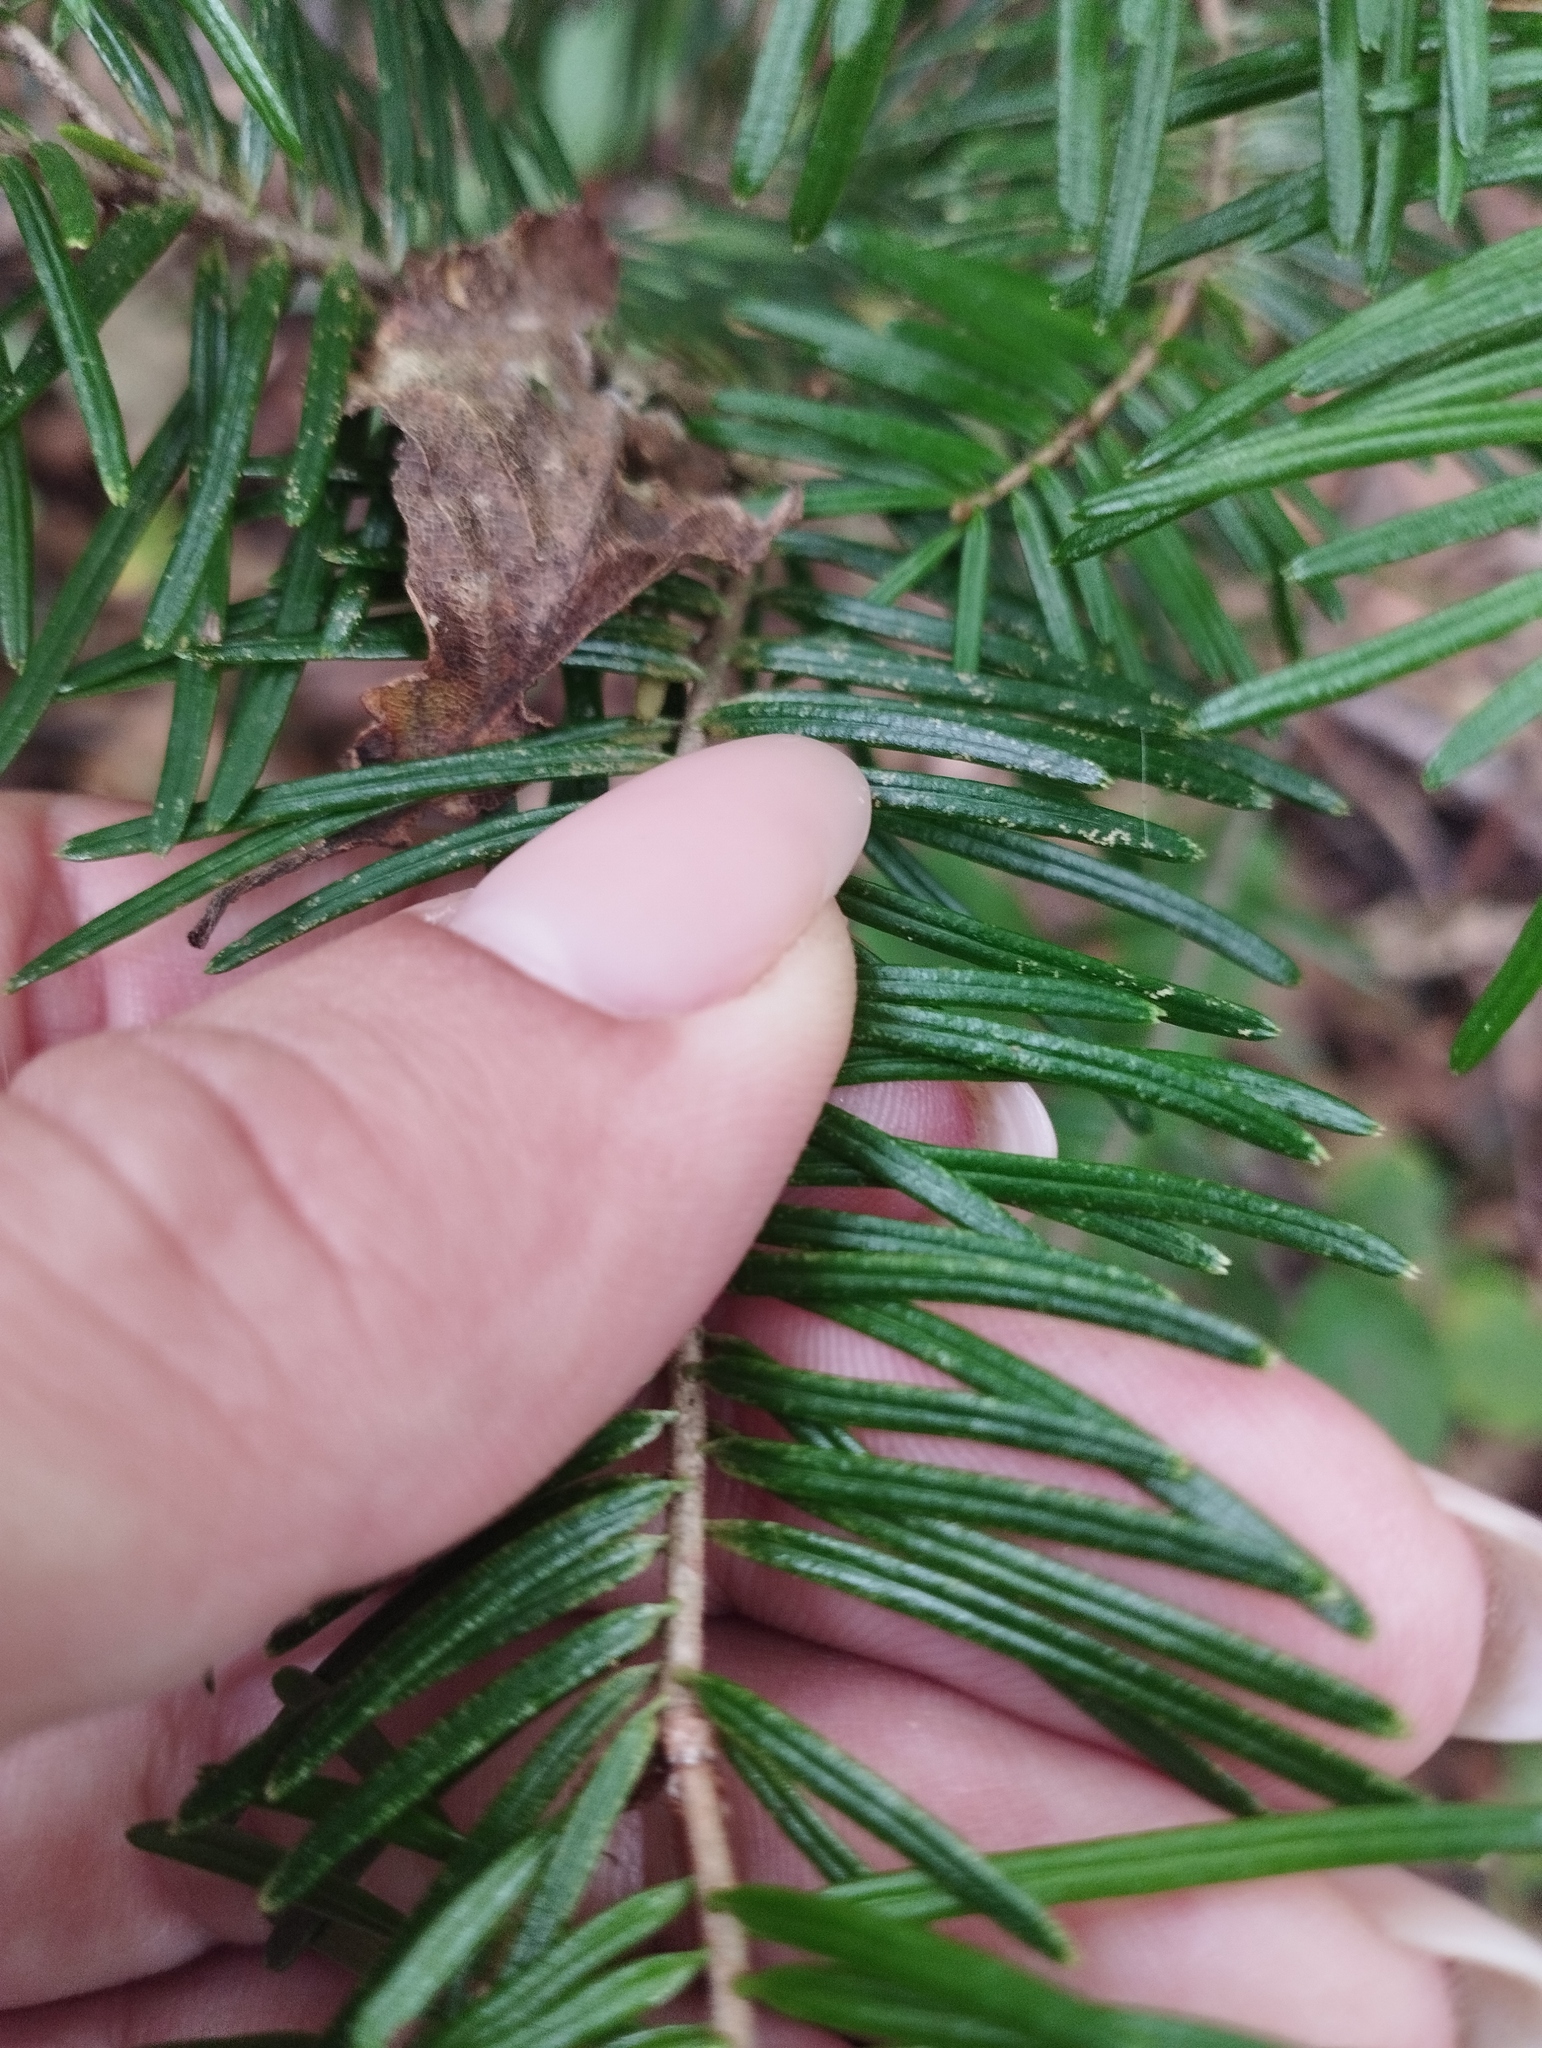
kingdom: Plantae
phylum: Tracheophyta
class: Pinopsida
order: Pinales
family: Pinaceae
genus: Abies
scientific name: Abies nephrolepis
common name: Hinggan fir
